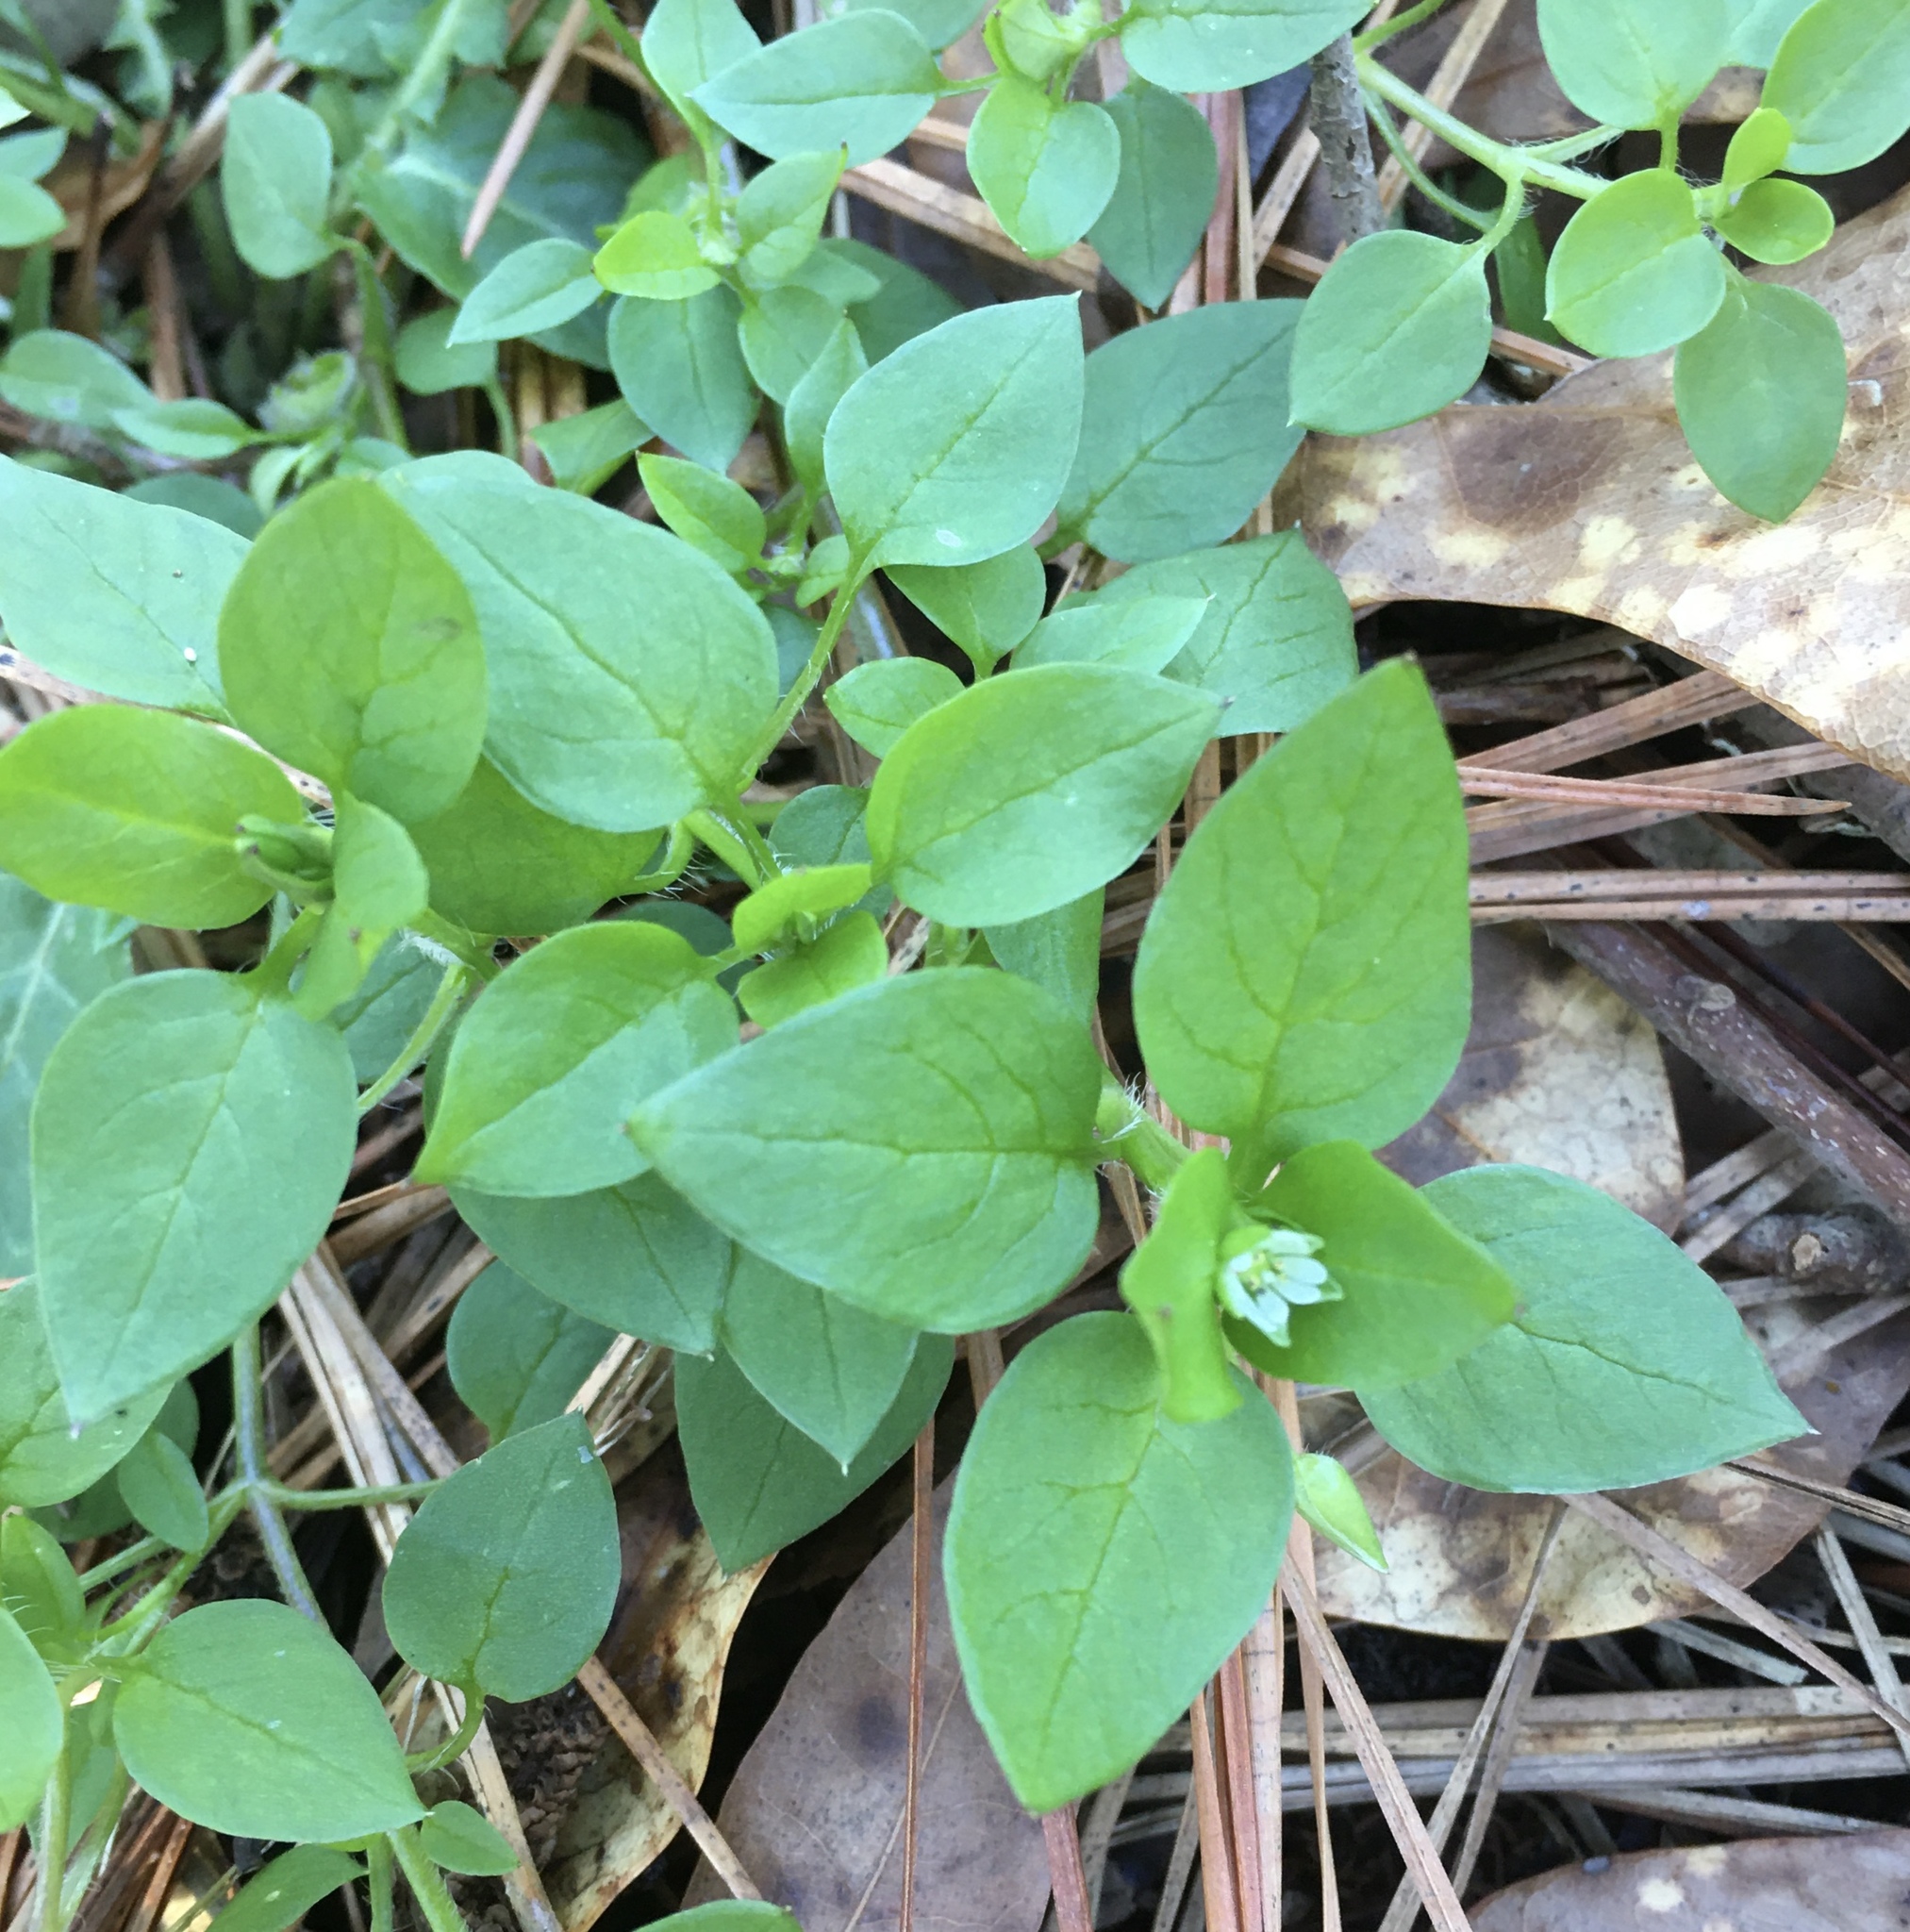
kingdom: Plantae
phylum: Tracheophyta
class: Magnoliopsida
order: Caryophyllales
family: Caryophyllaceae
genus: Stellaria
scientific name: Stellaria media
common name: Common chickweed
